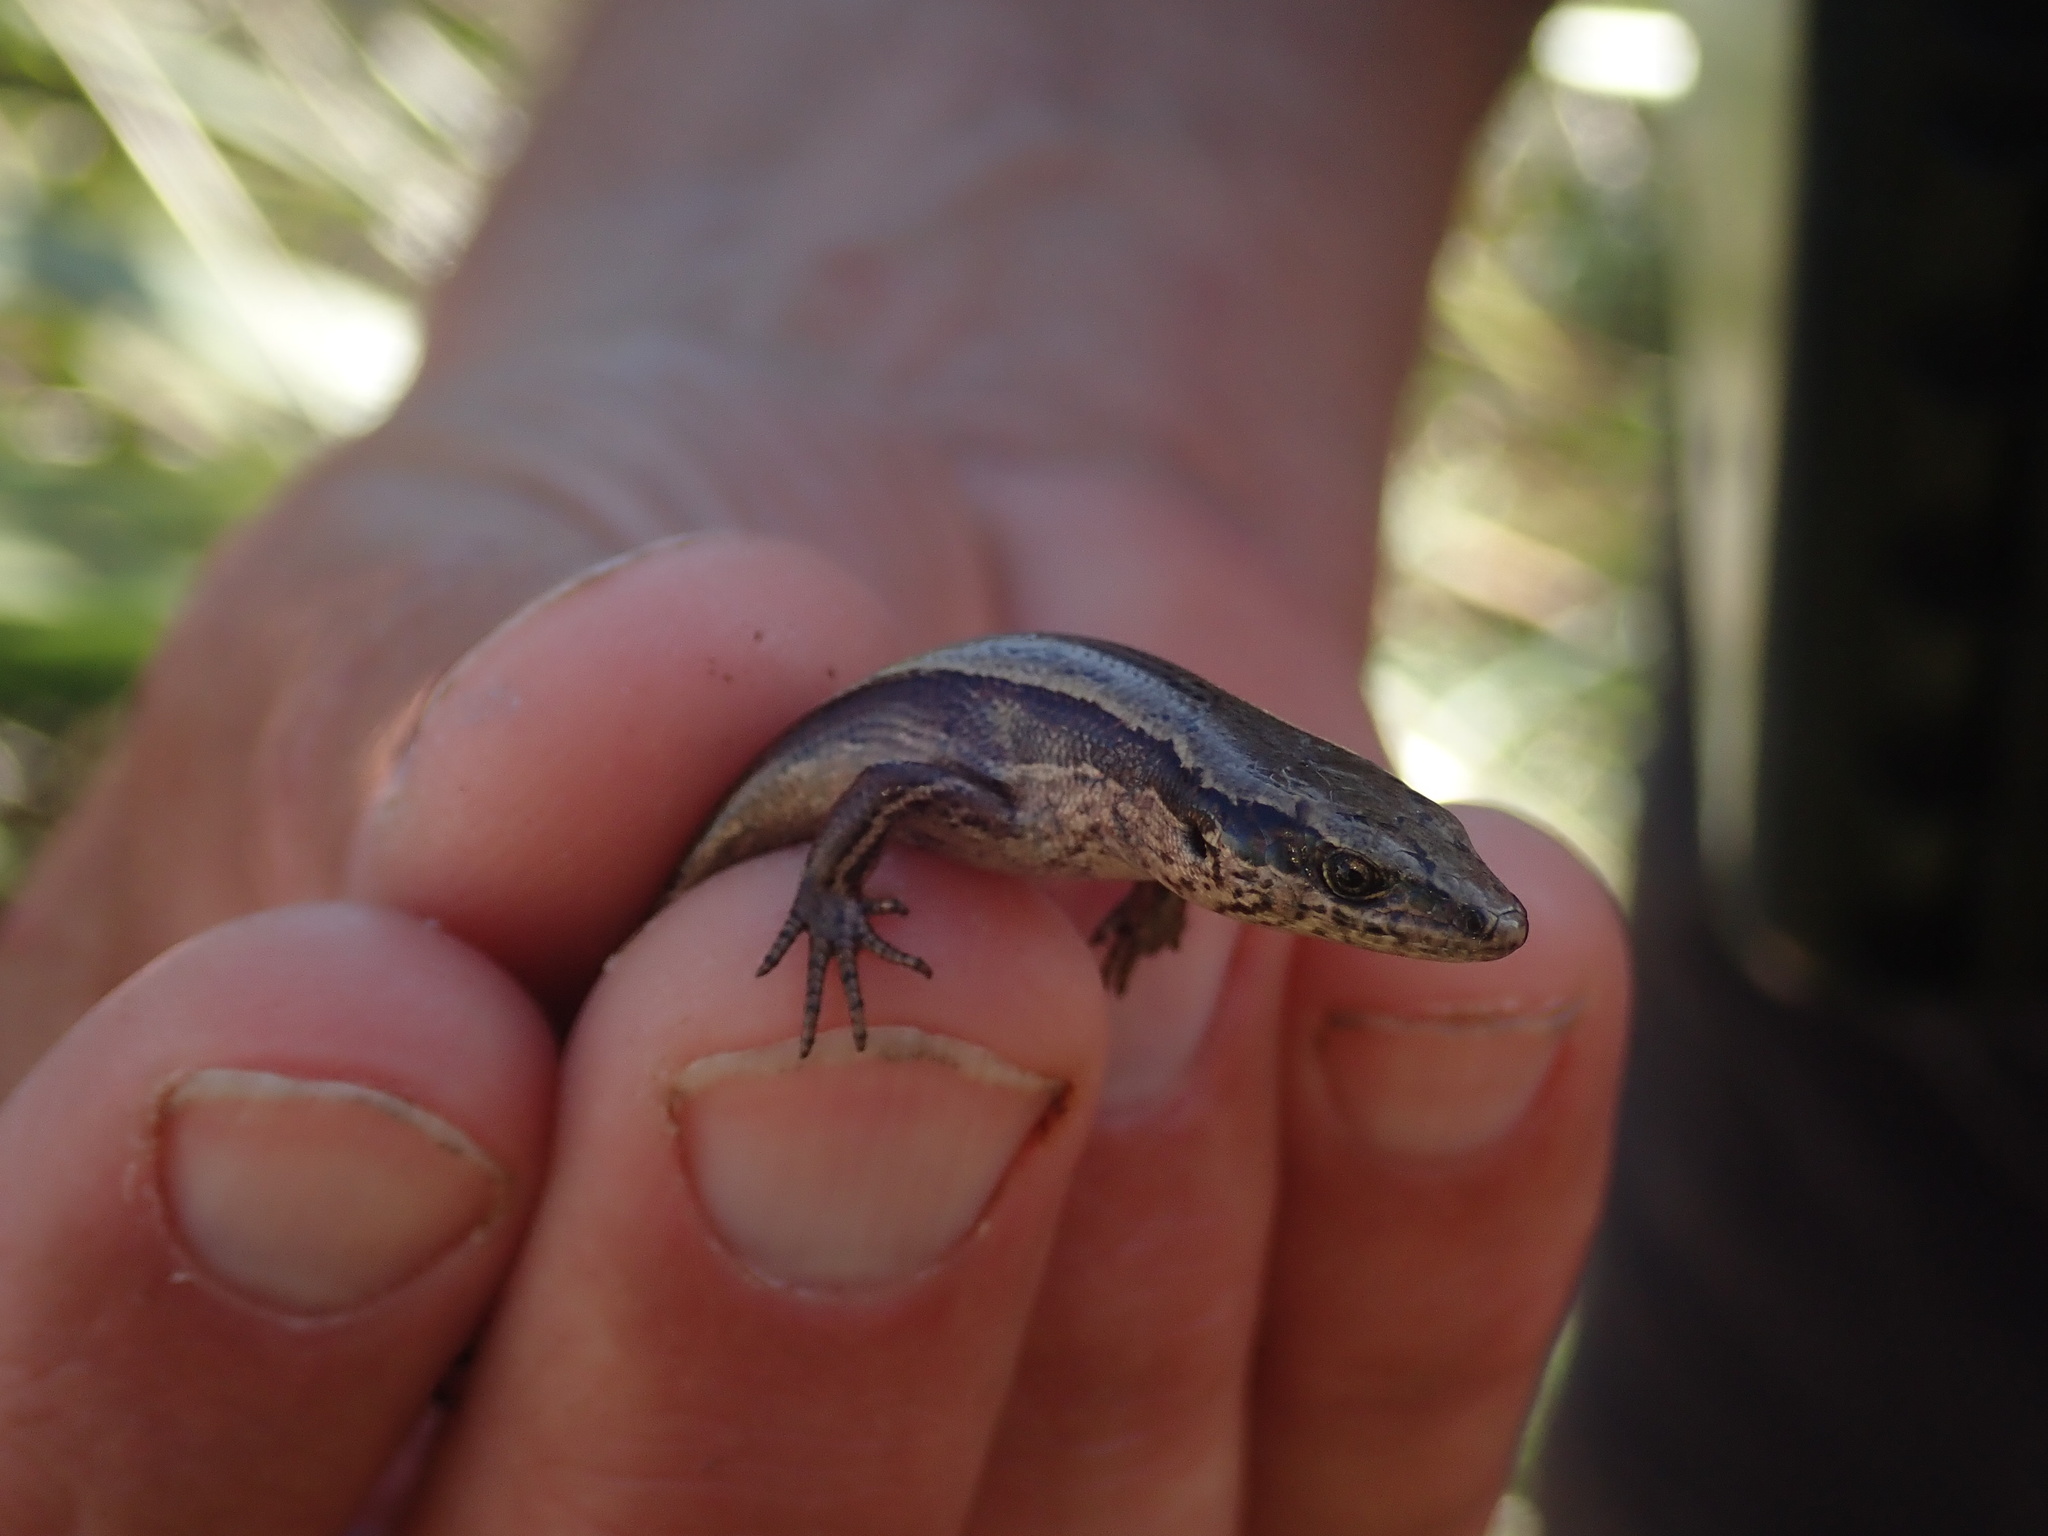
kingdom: Animalia
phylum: Chordata
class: Squamata
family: Scincidae
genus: Oligosoma
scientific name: Oligosoma zelandicum
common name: Brown skink
